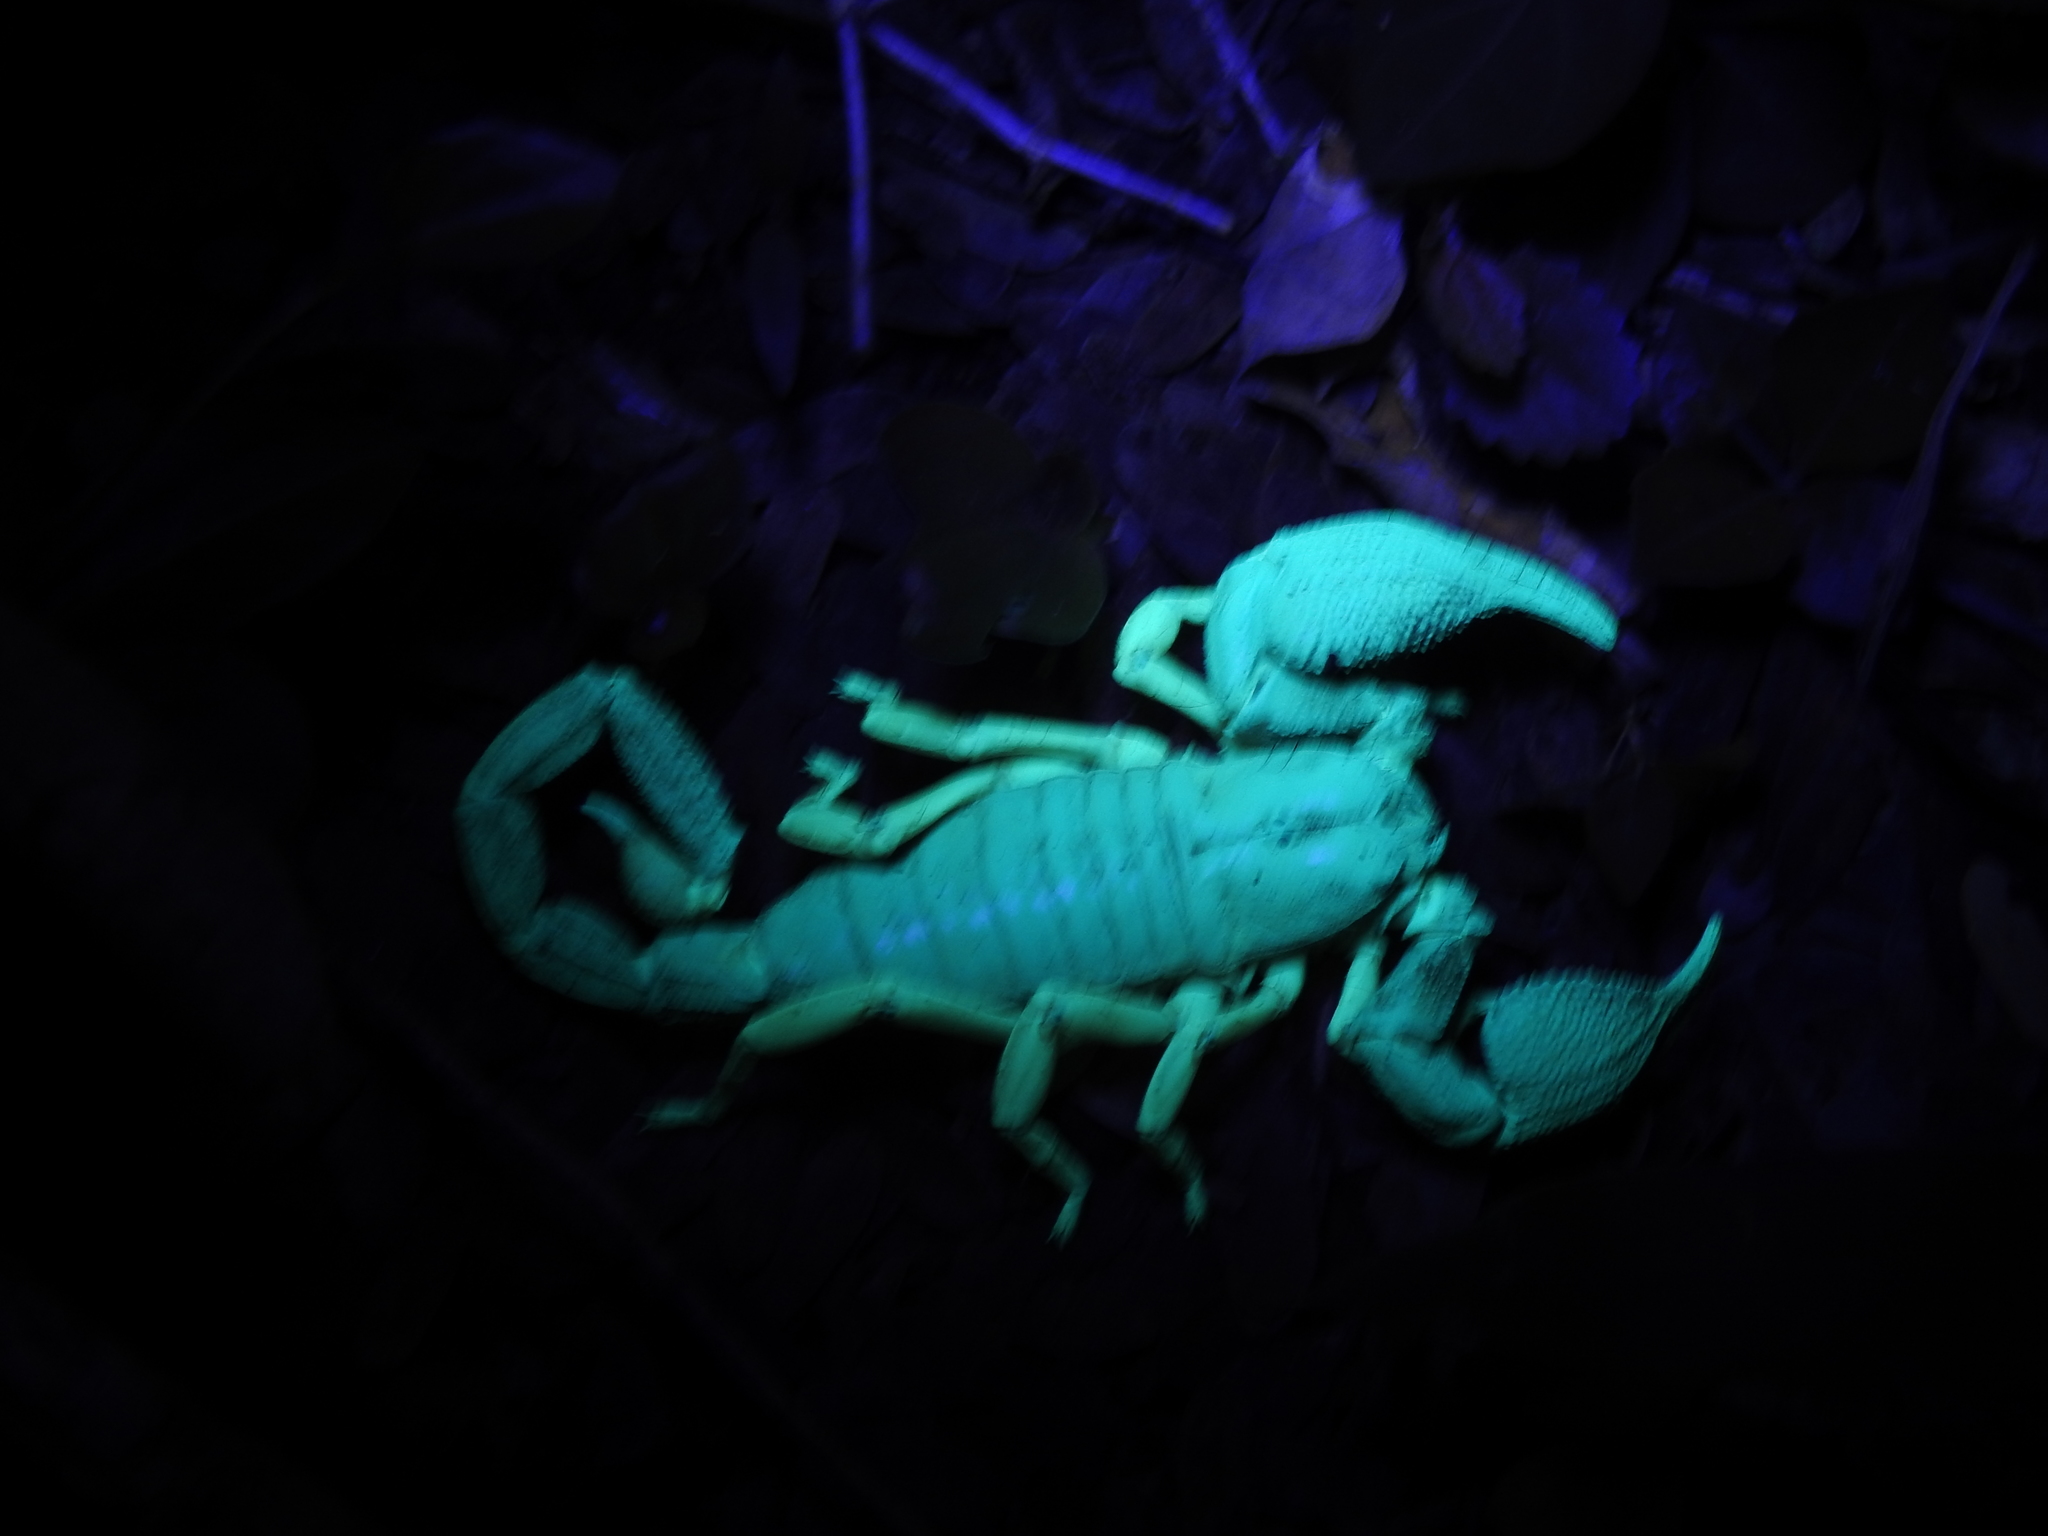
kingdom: Animalia
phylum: Arthropoda
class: Arachnida
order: Scorpiones
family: Scorpionidae
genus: Gigantometrus
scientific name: Gigantometrus swammerdami
